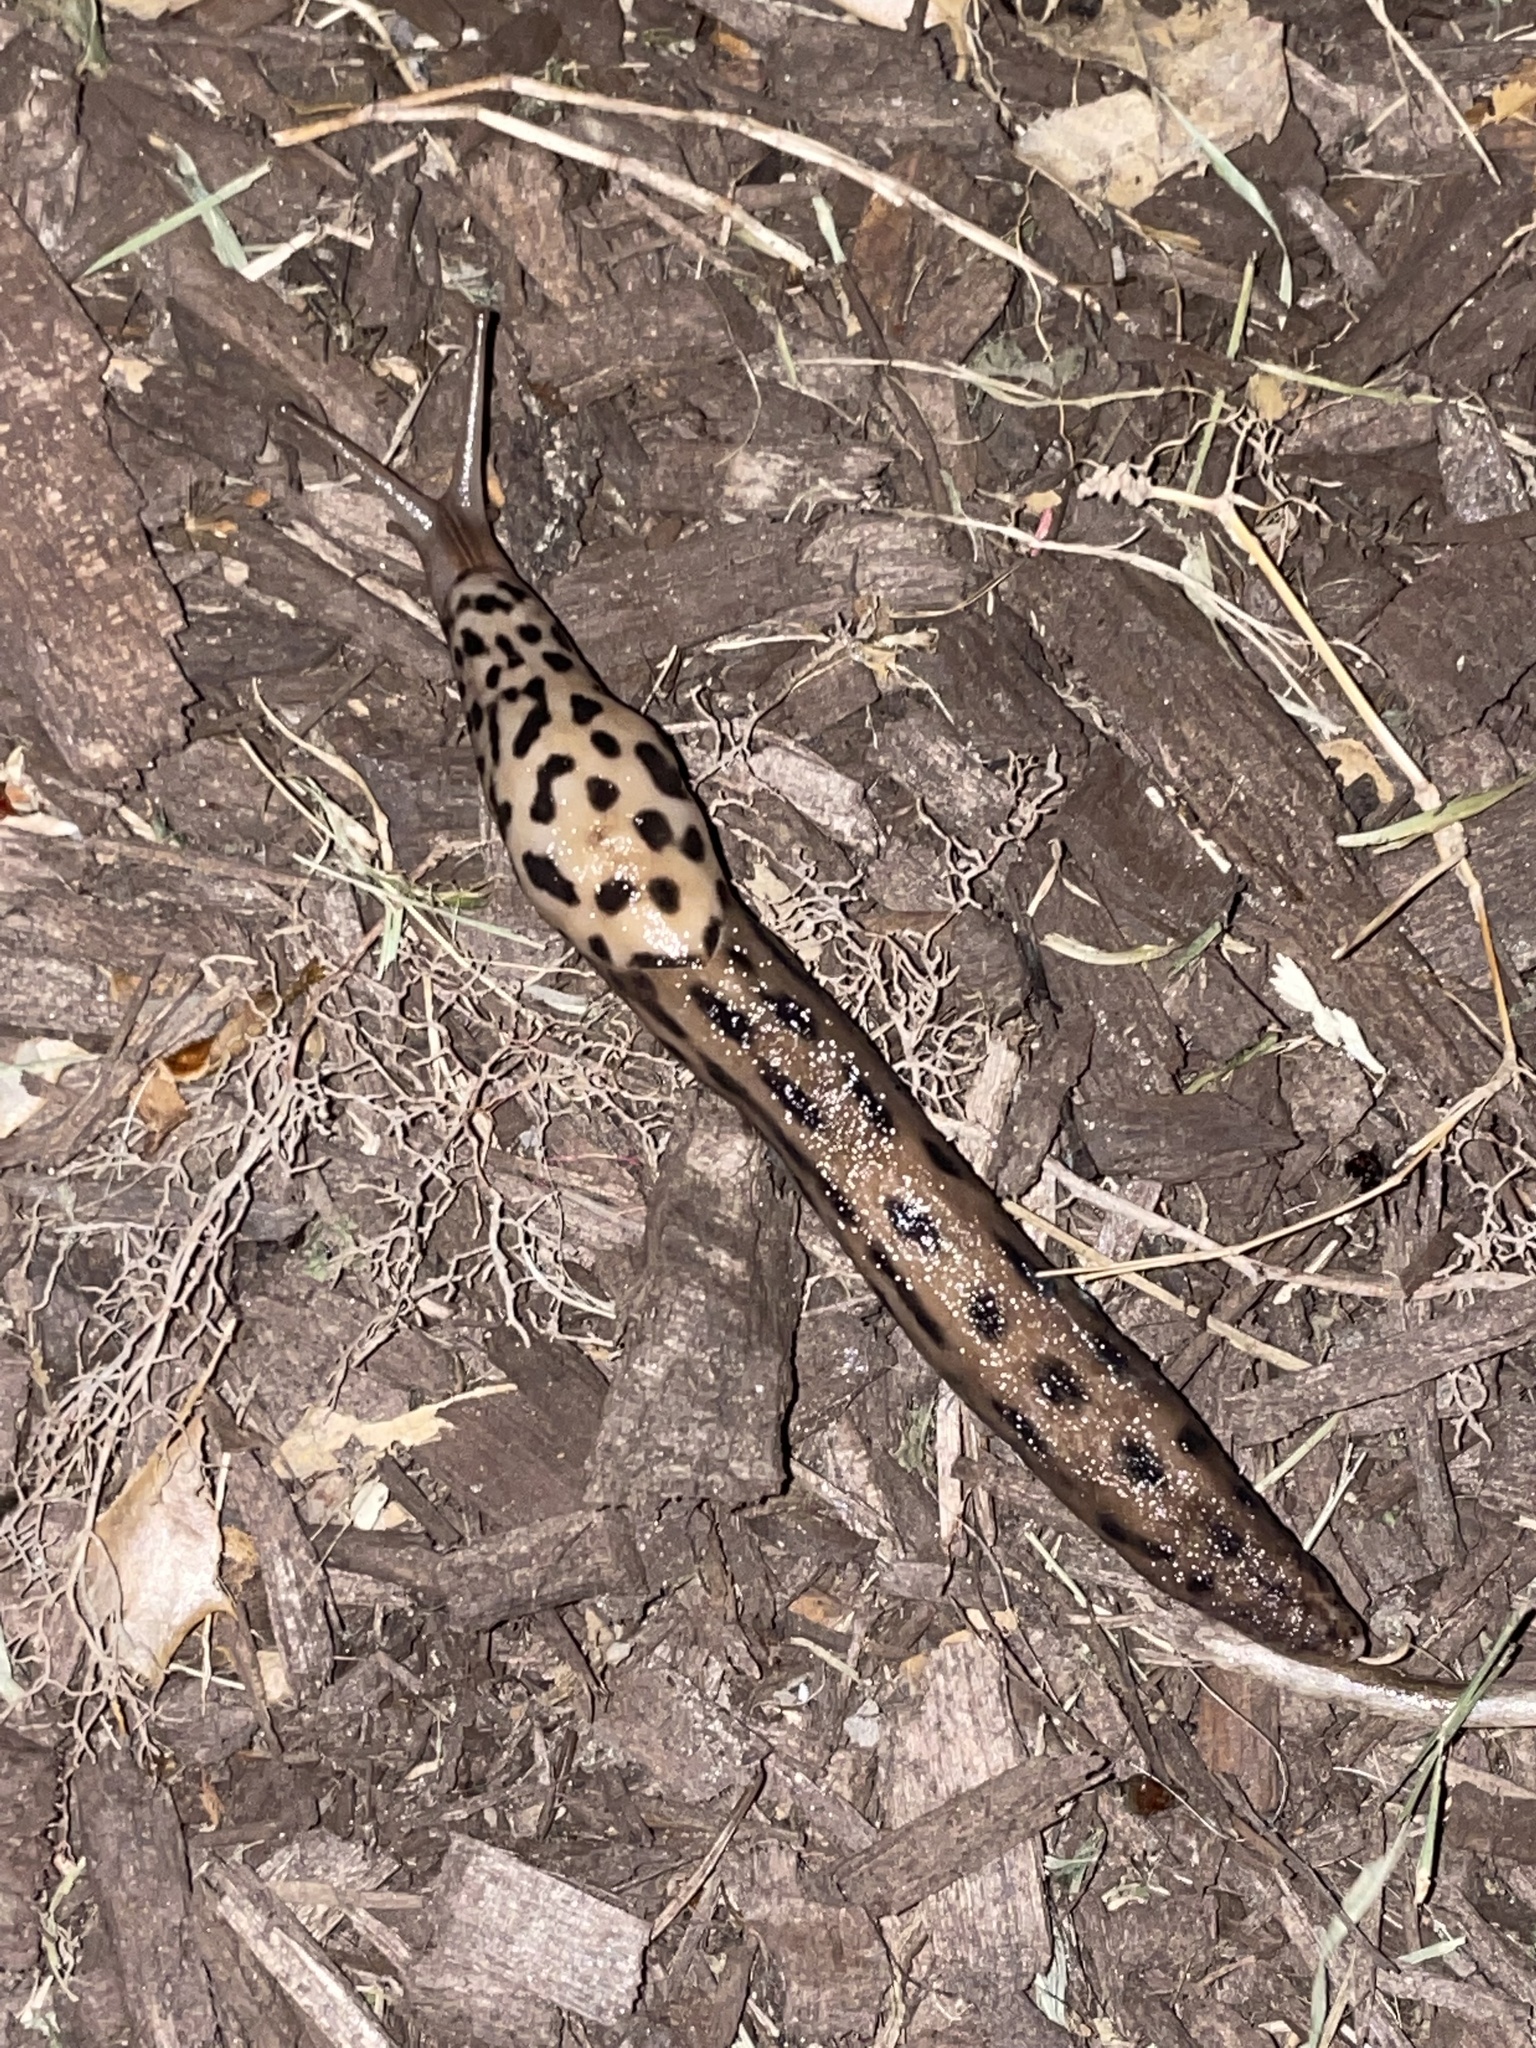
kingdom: Animalia
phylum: Mollusca
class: Gastropoda
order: Stylommatophora
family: Limacidae
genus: Limax
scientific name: Limax maximus
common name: Great grey slug
